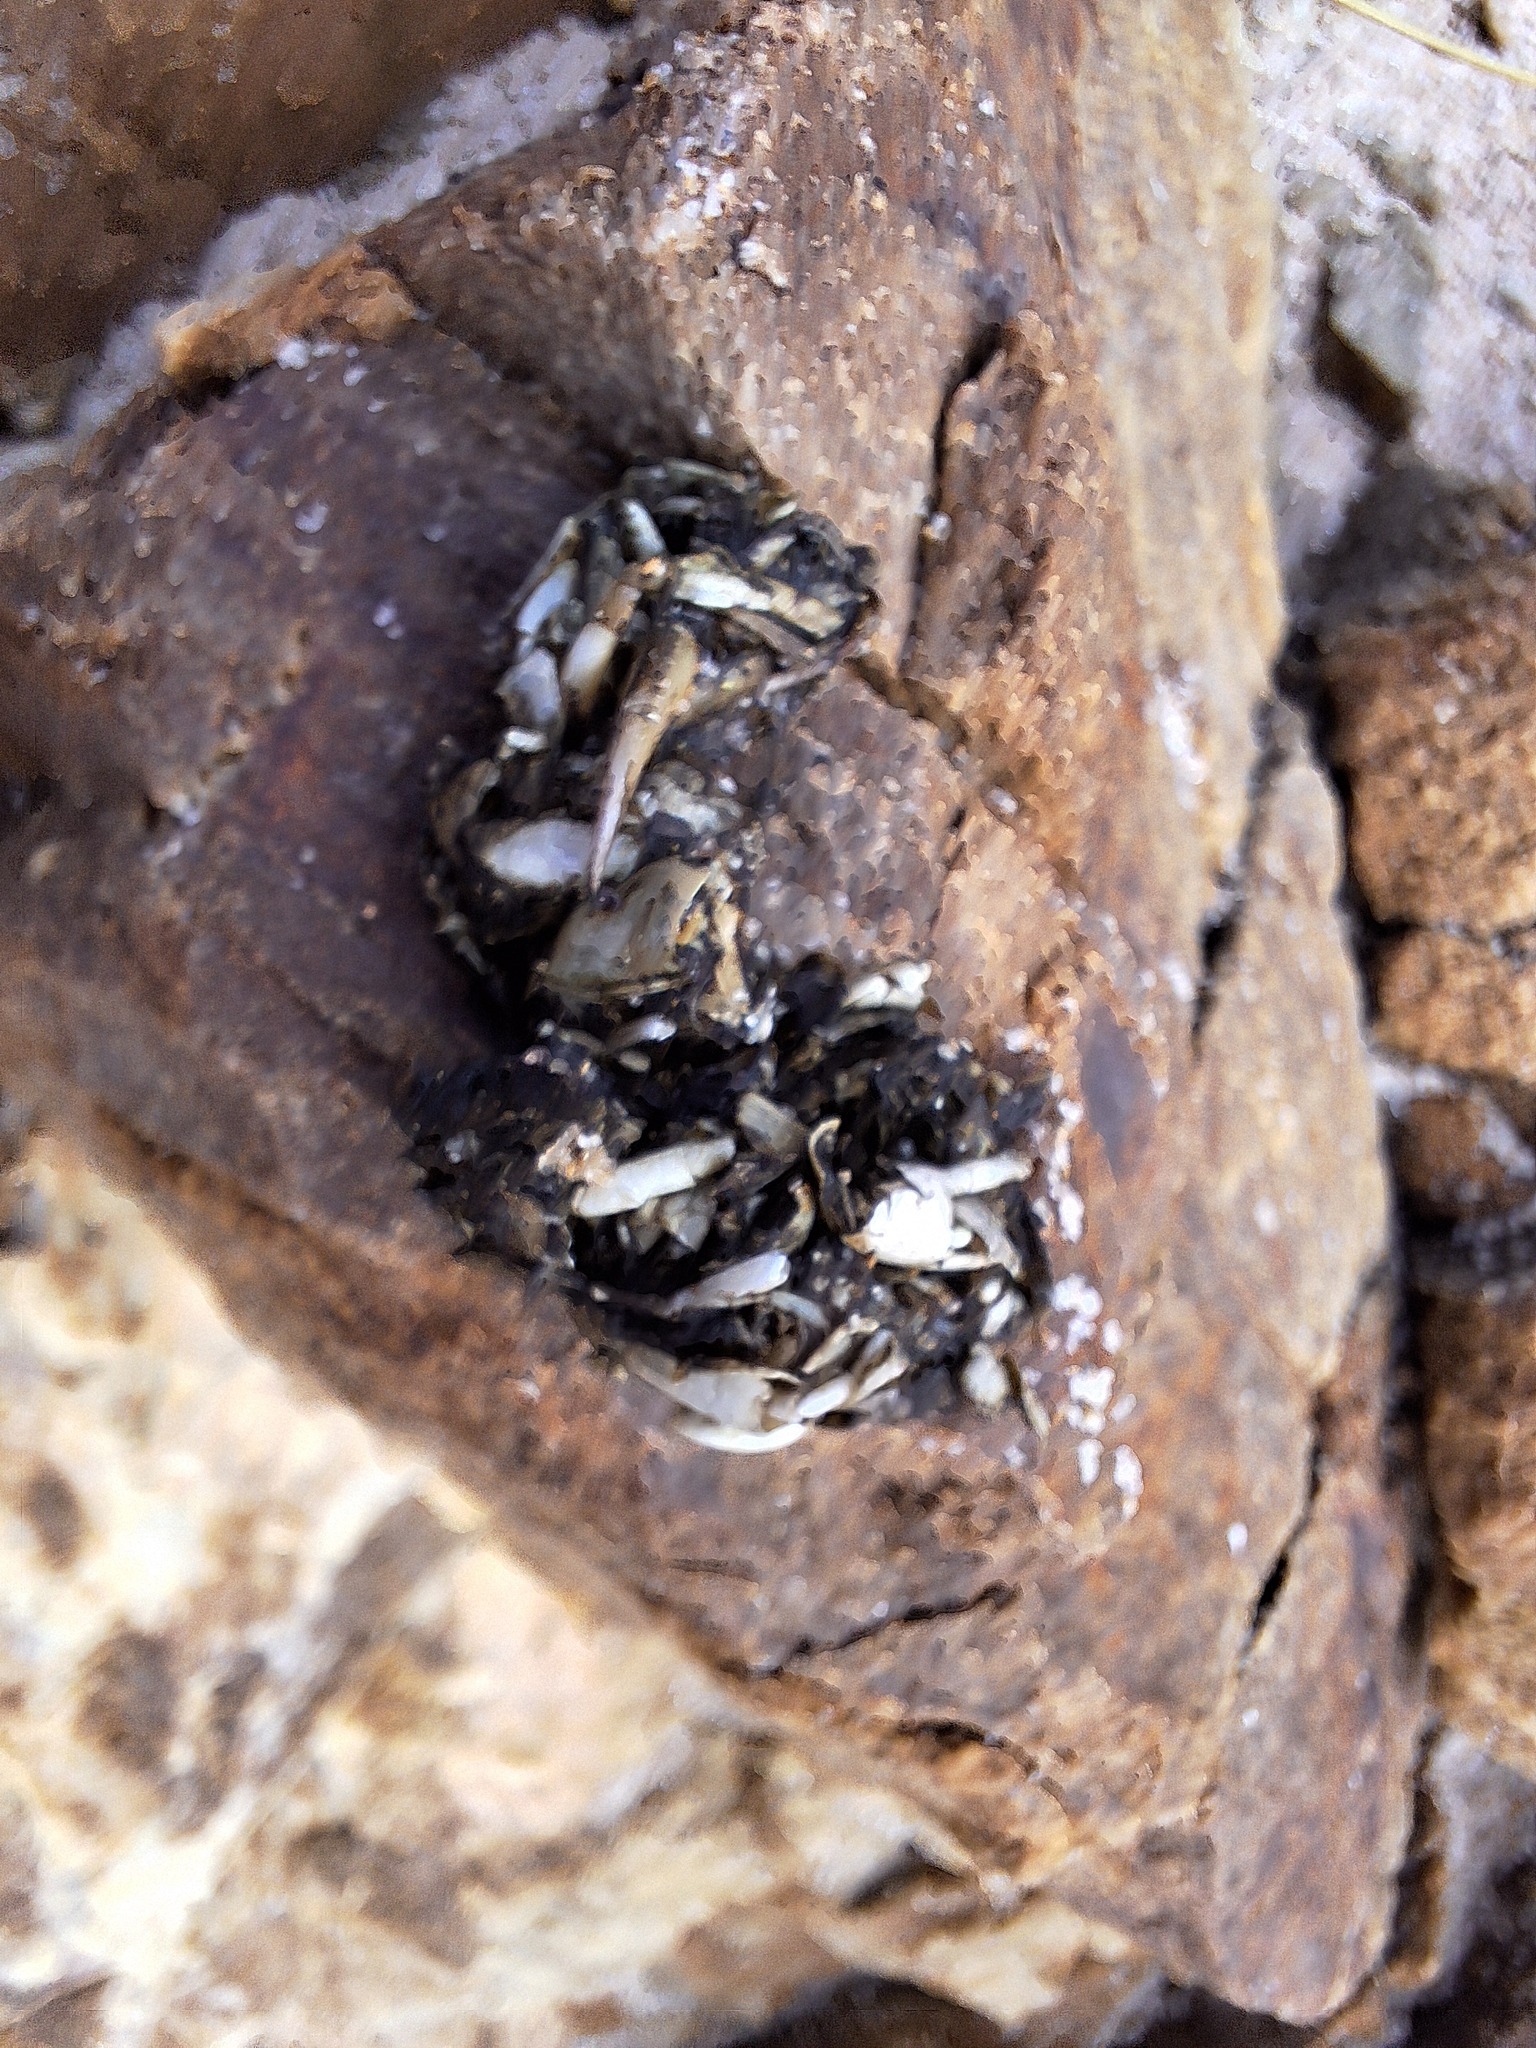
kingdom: Animalia
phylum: Chordata
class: Mammalia
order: Carnivora
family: Mustelidae
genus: Lutra
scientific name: Lutra lutra
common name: European otter
